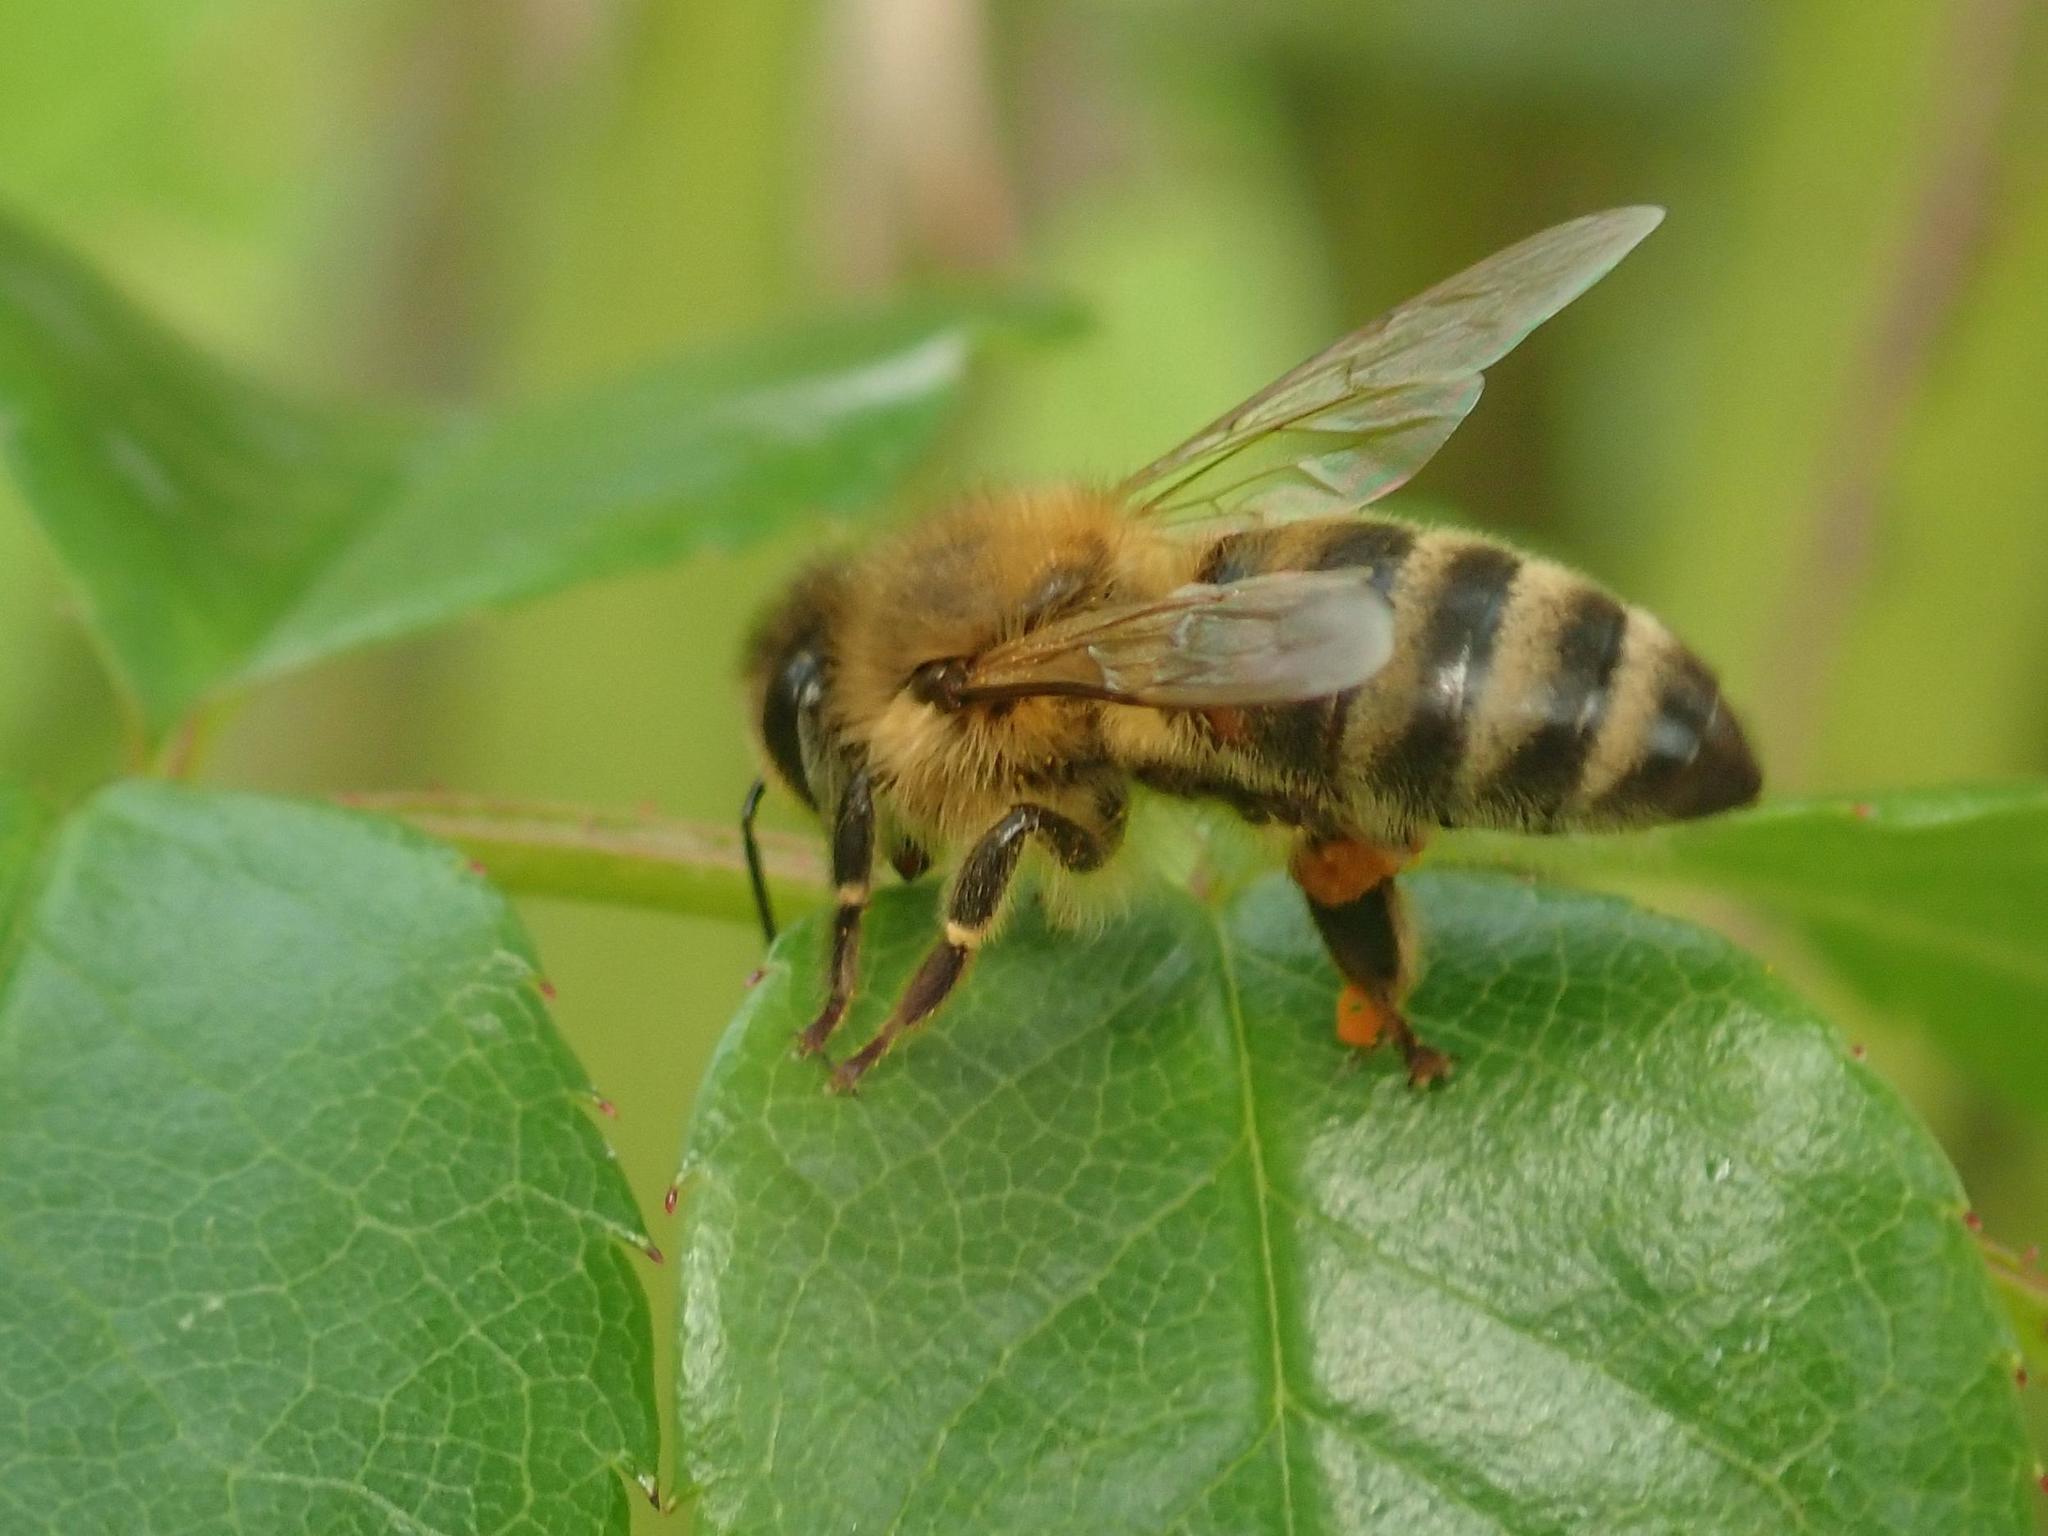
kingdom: Animalia
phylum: Arthropoda
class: Insecta
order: Hymenoptera
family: Apidae
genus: Apis
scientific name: Apis mellifera
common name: Honey bee
